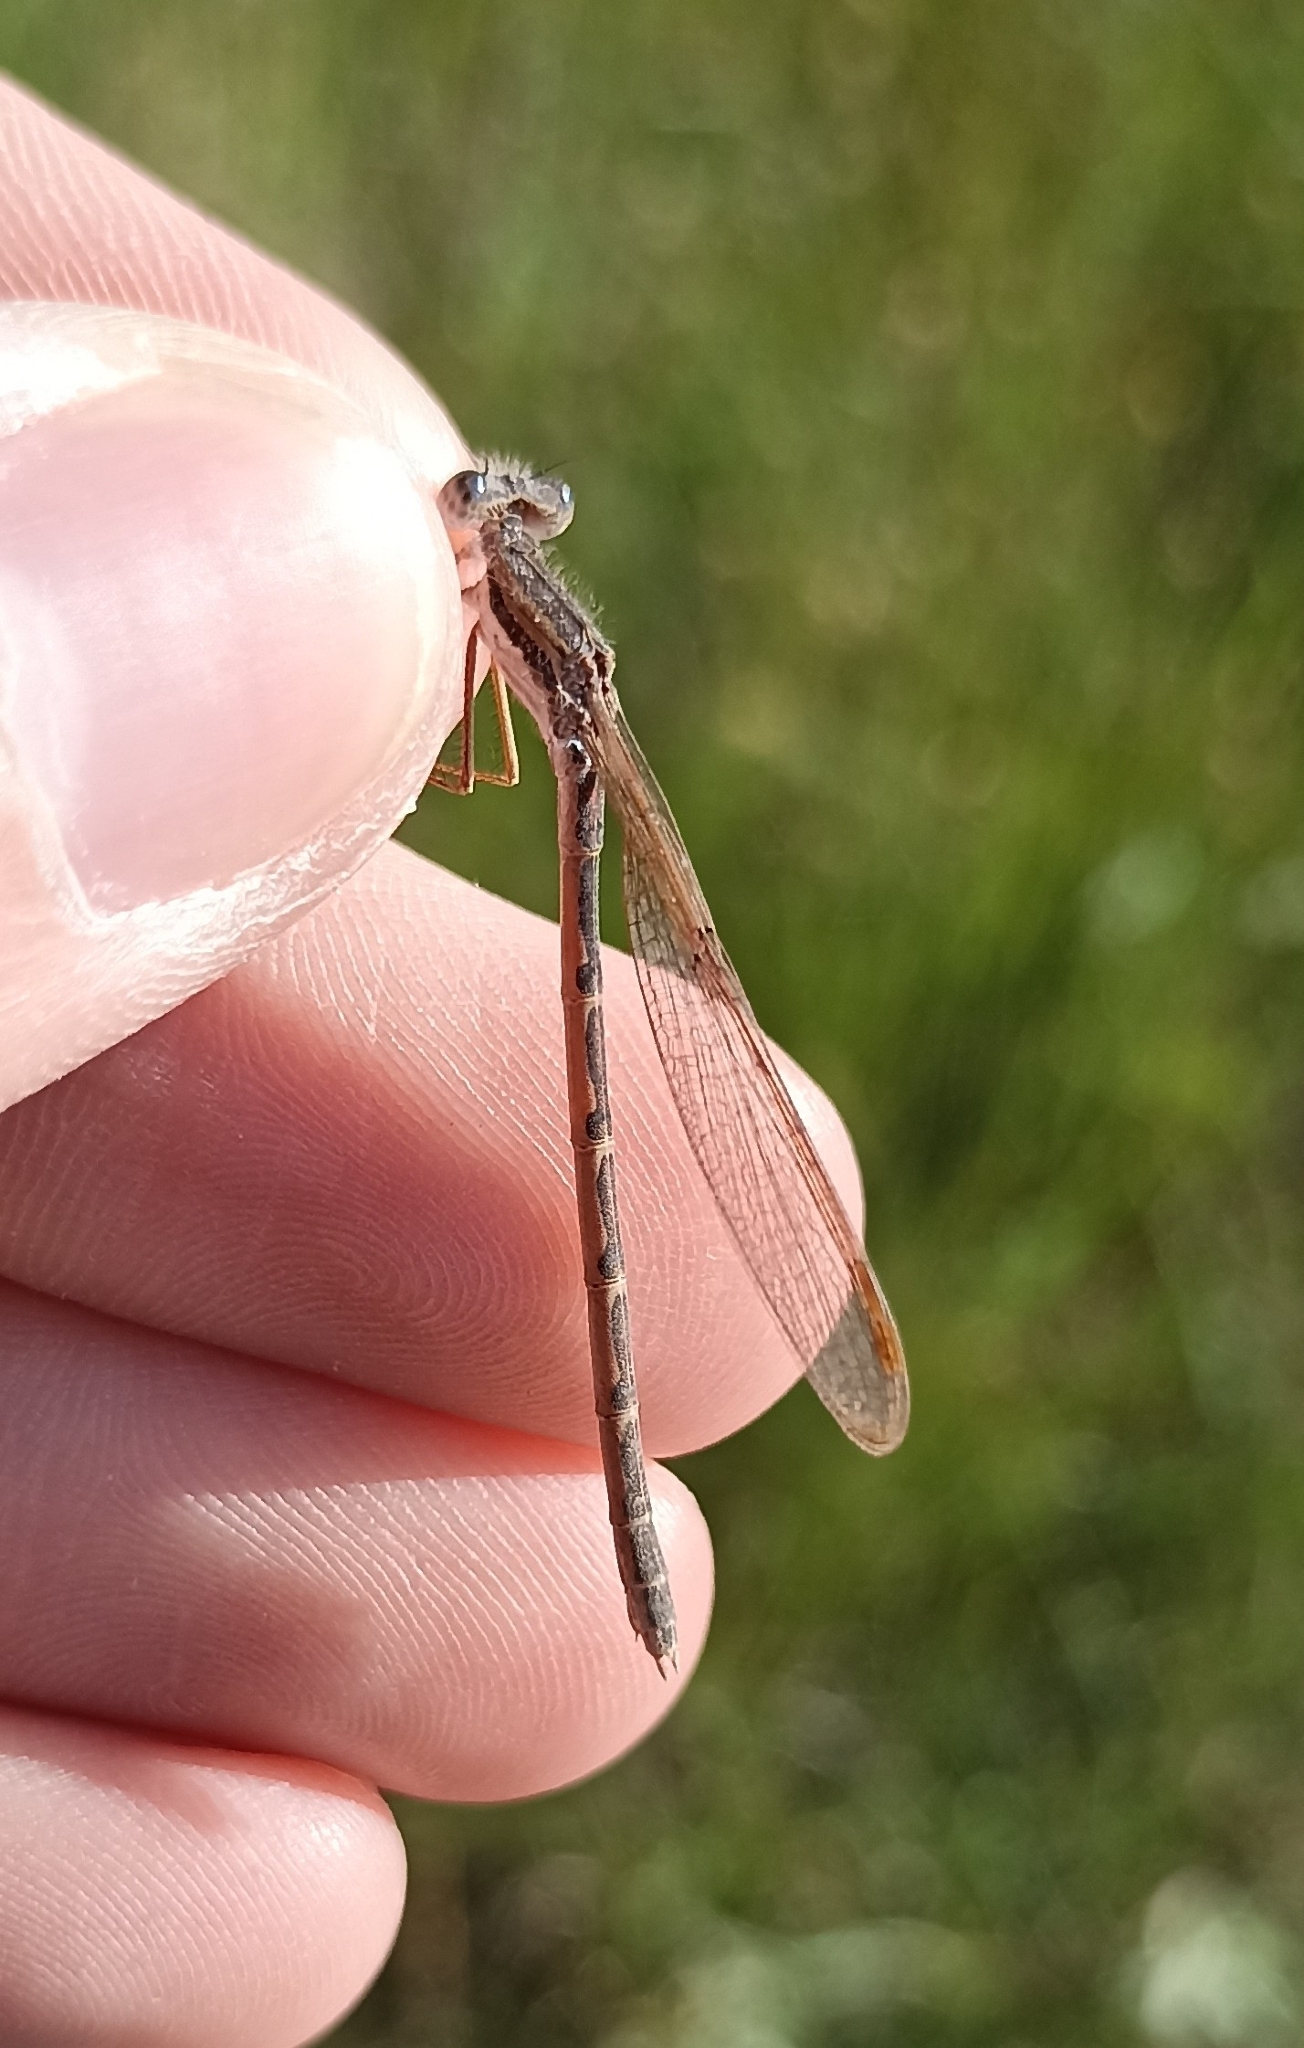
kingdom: Animalia
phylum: Arthropoda
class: Insecta
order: Odonata
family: Lestidae
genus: Sympecma
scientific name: Sympecma fusca
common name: Common winter damsel
